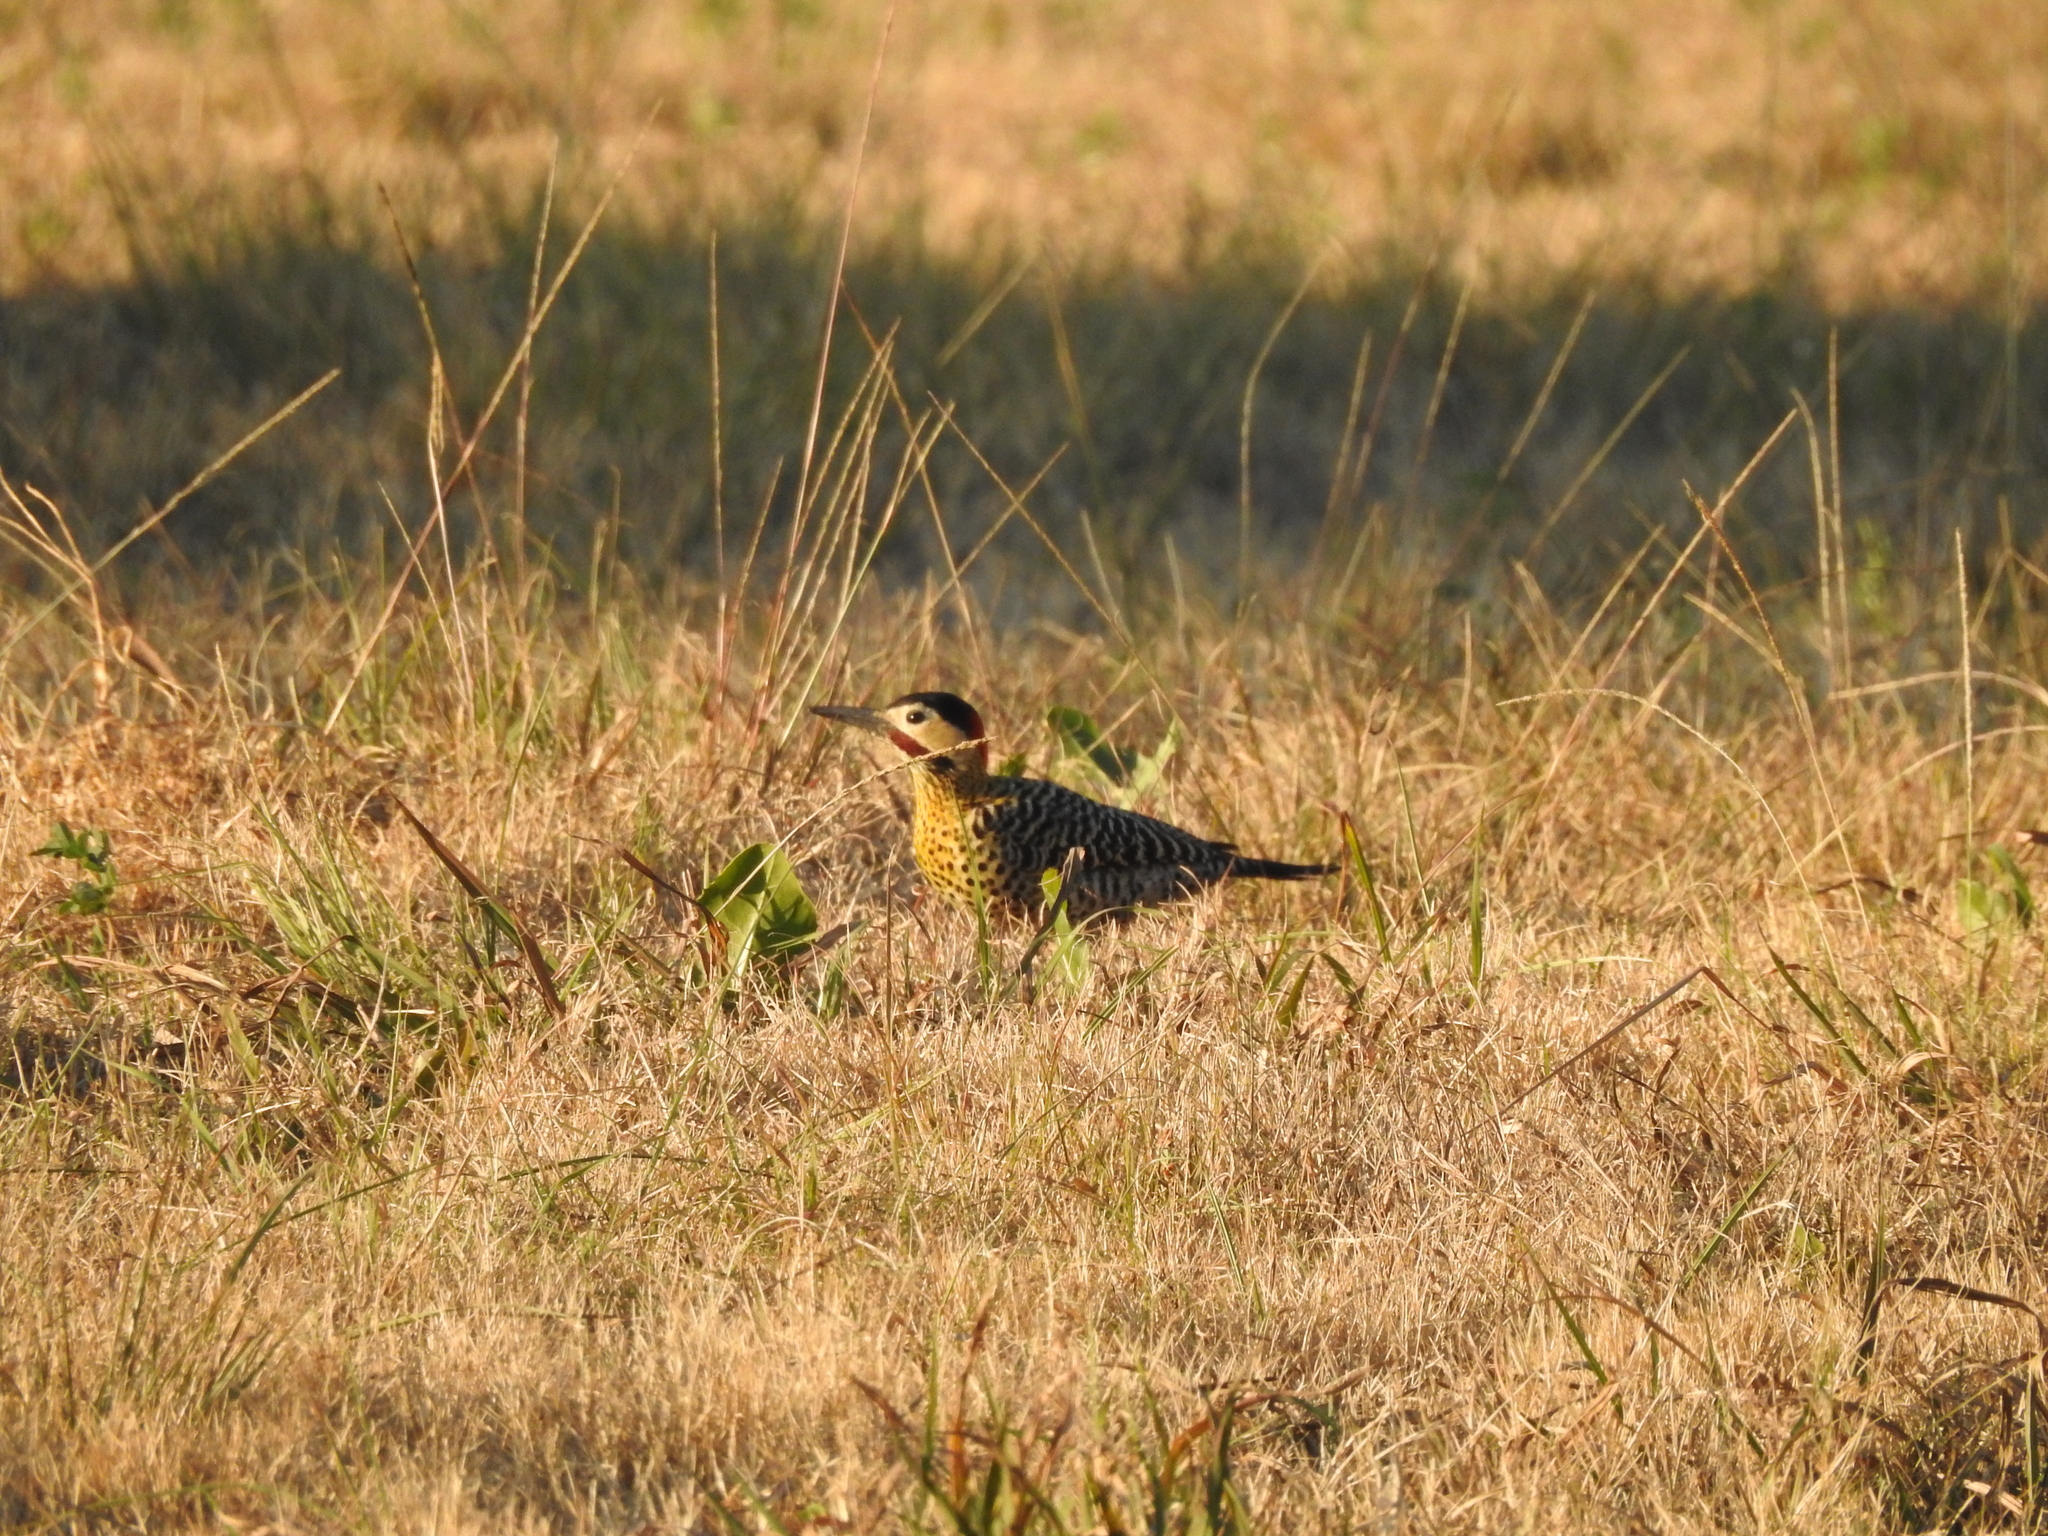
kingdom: Animalia
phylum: Chordata
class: Aves
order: Piciformes
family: Picidae
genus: Colaptes
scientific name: Colaptes melanochloros
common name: Green-barred woodpecker
